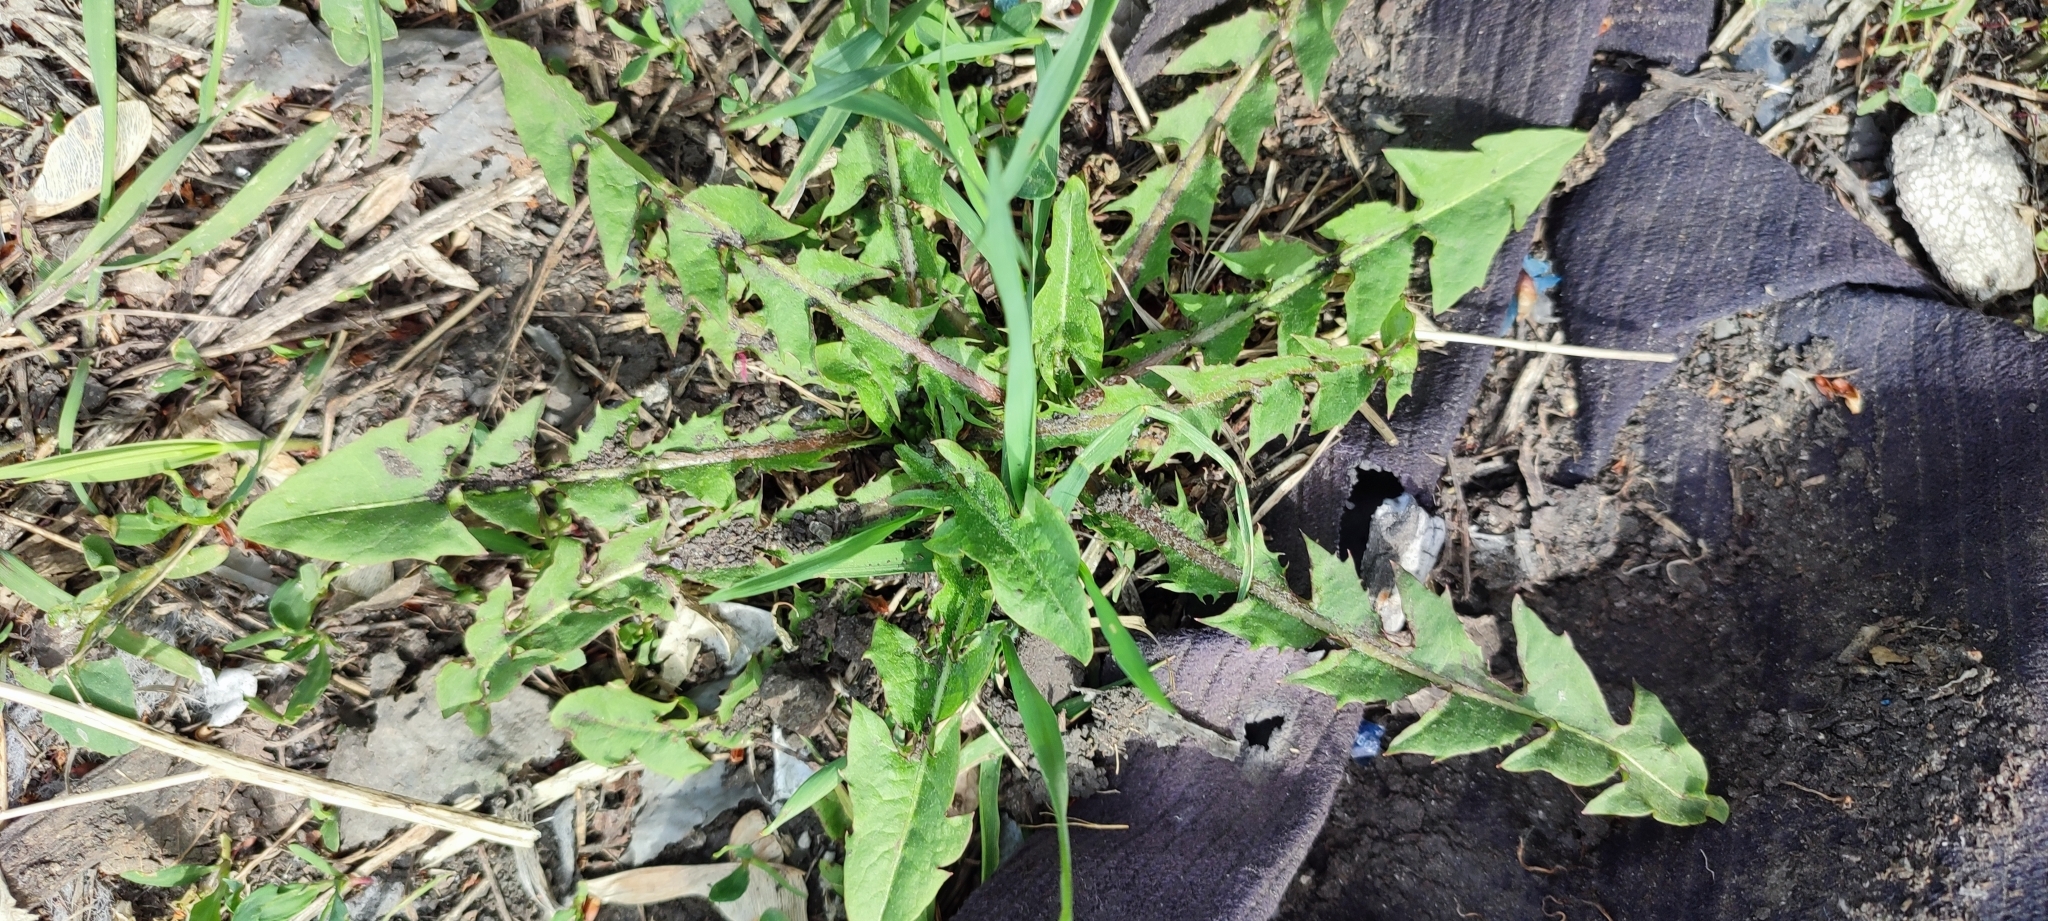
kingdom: Plantae
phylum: Tracheophyta
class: Magnoliopsida
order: Asterales
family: Asteraceae
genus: Taraxacum
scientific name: Taraxacum officinale
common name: Common dandelion
